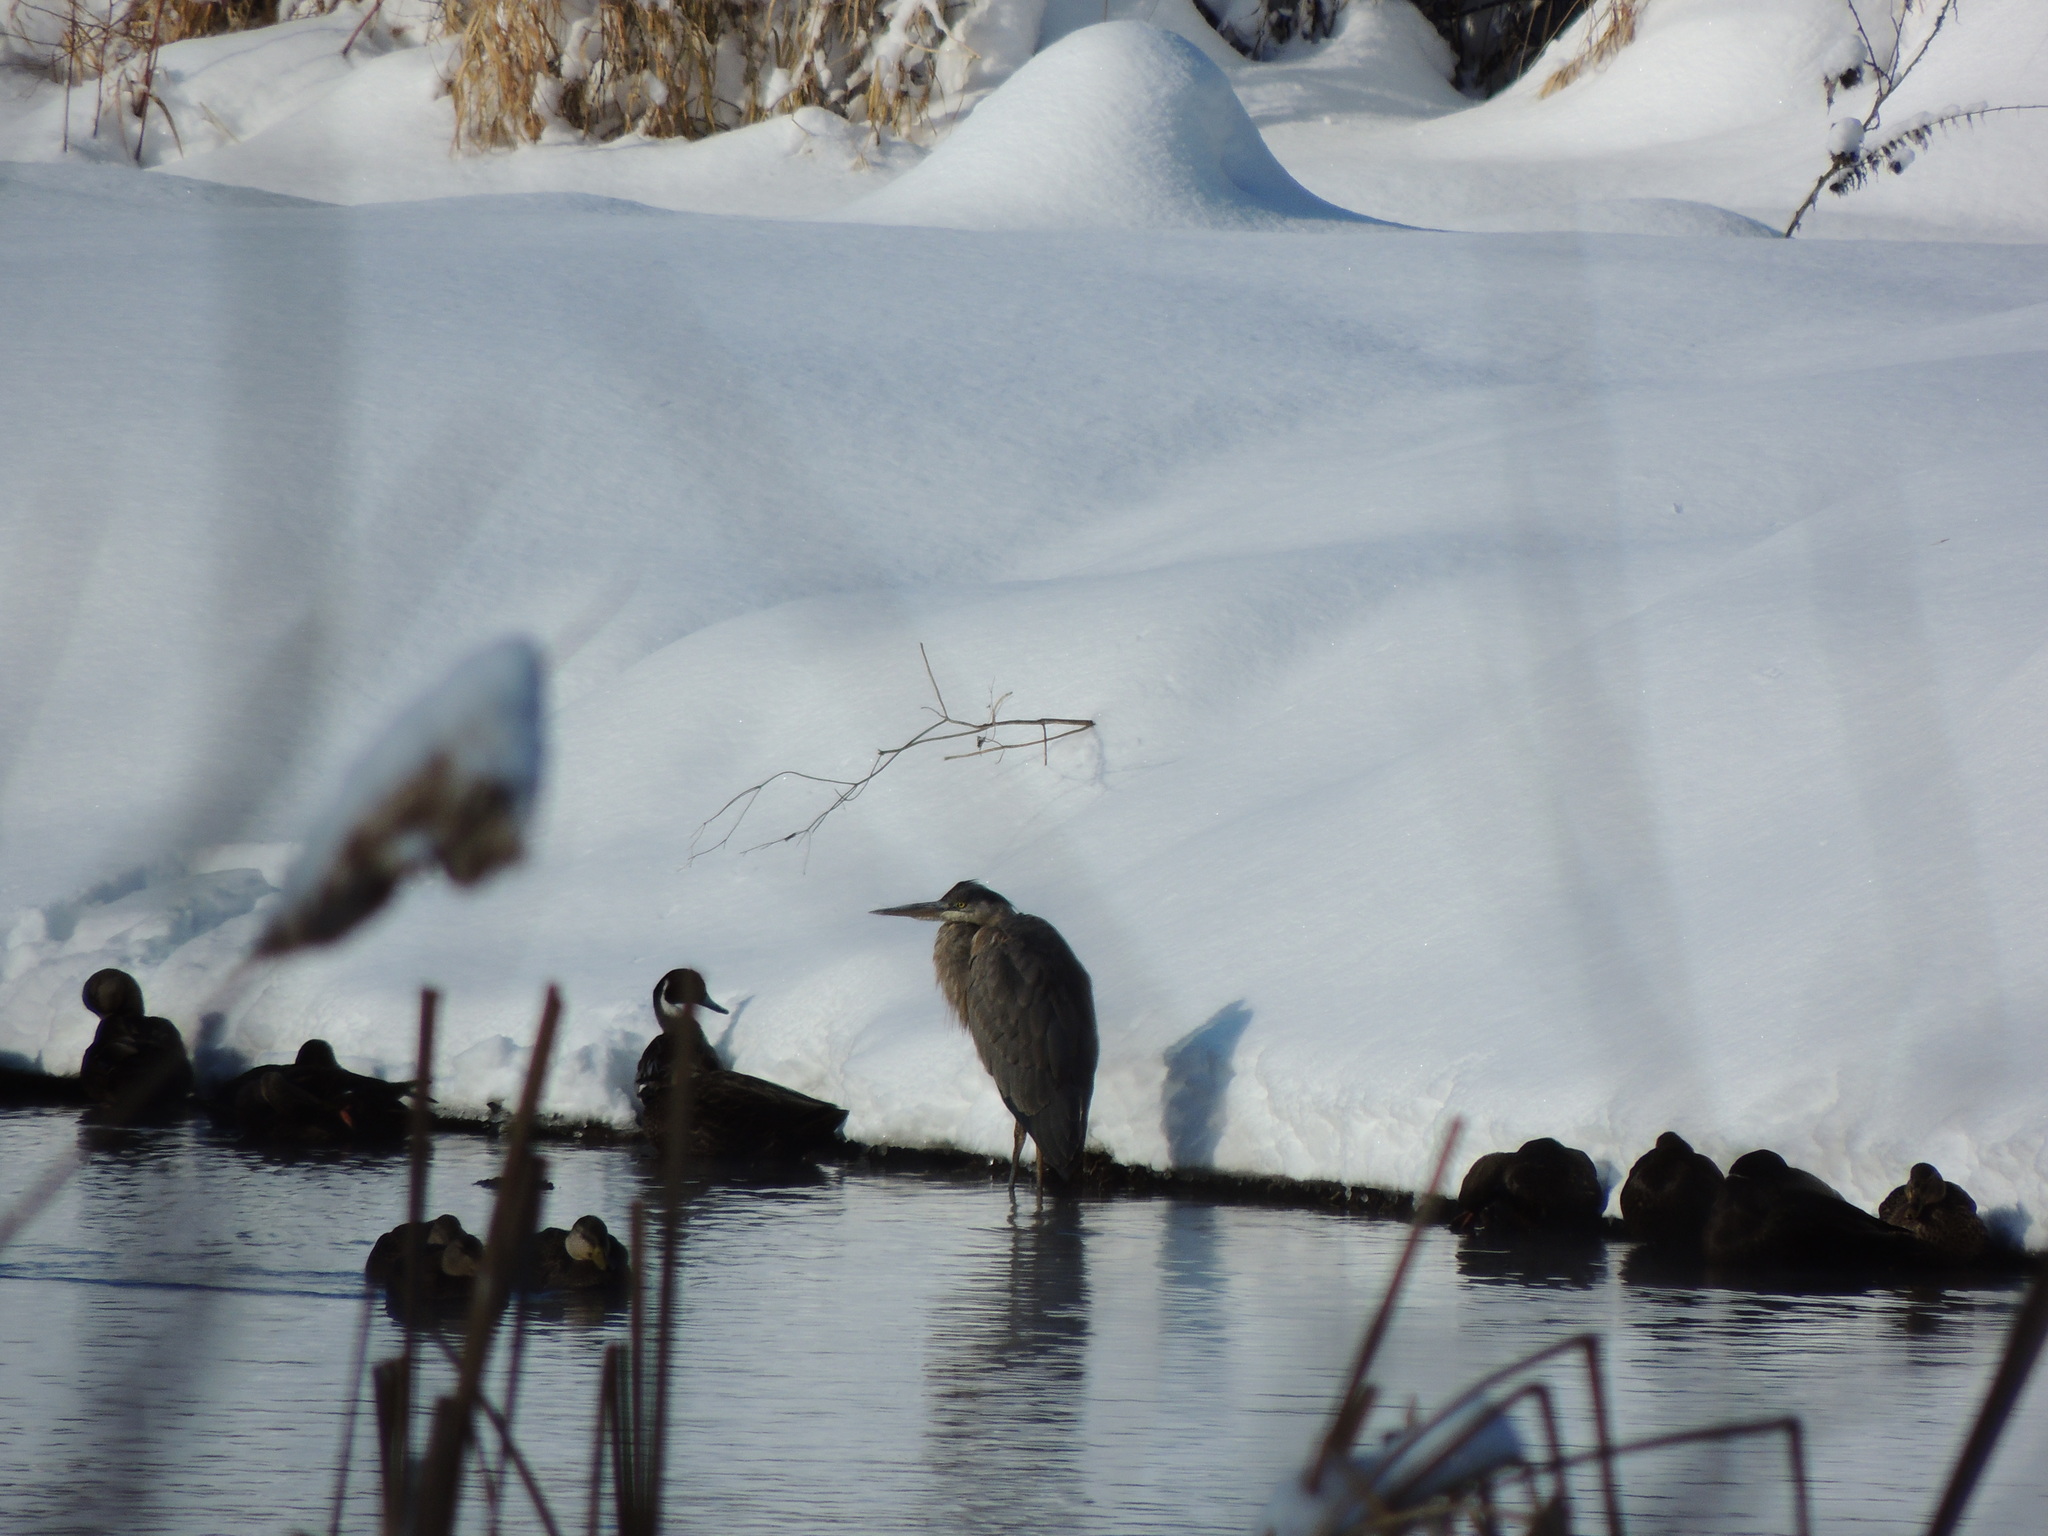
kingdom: Animalia
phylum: Chordata
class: Aves
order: Pelecaniformes
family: Ardeidae
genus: Ardea
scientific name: Ardea herodias
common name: Great blue heron
